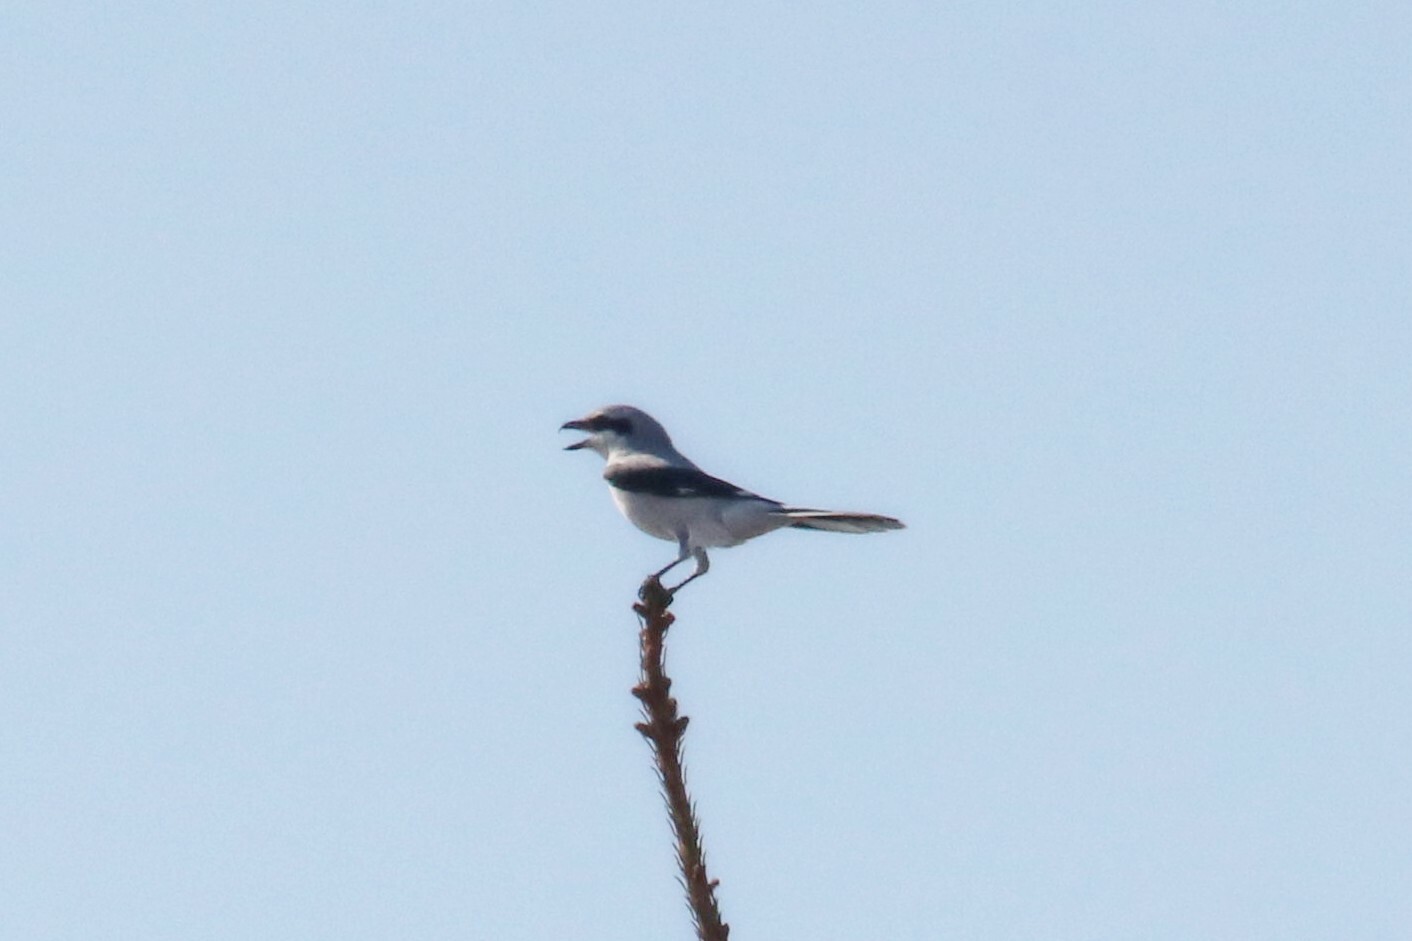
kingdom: Animalia
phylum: Chordata
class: Aves
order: Passeriformes
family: Laniidae
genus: Lanius
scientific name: Lanius excubitor
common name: Great grey shrike
